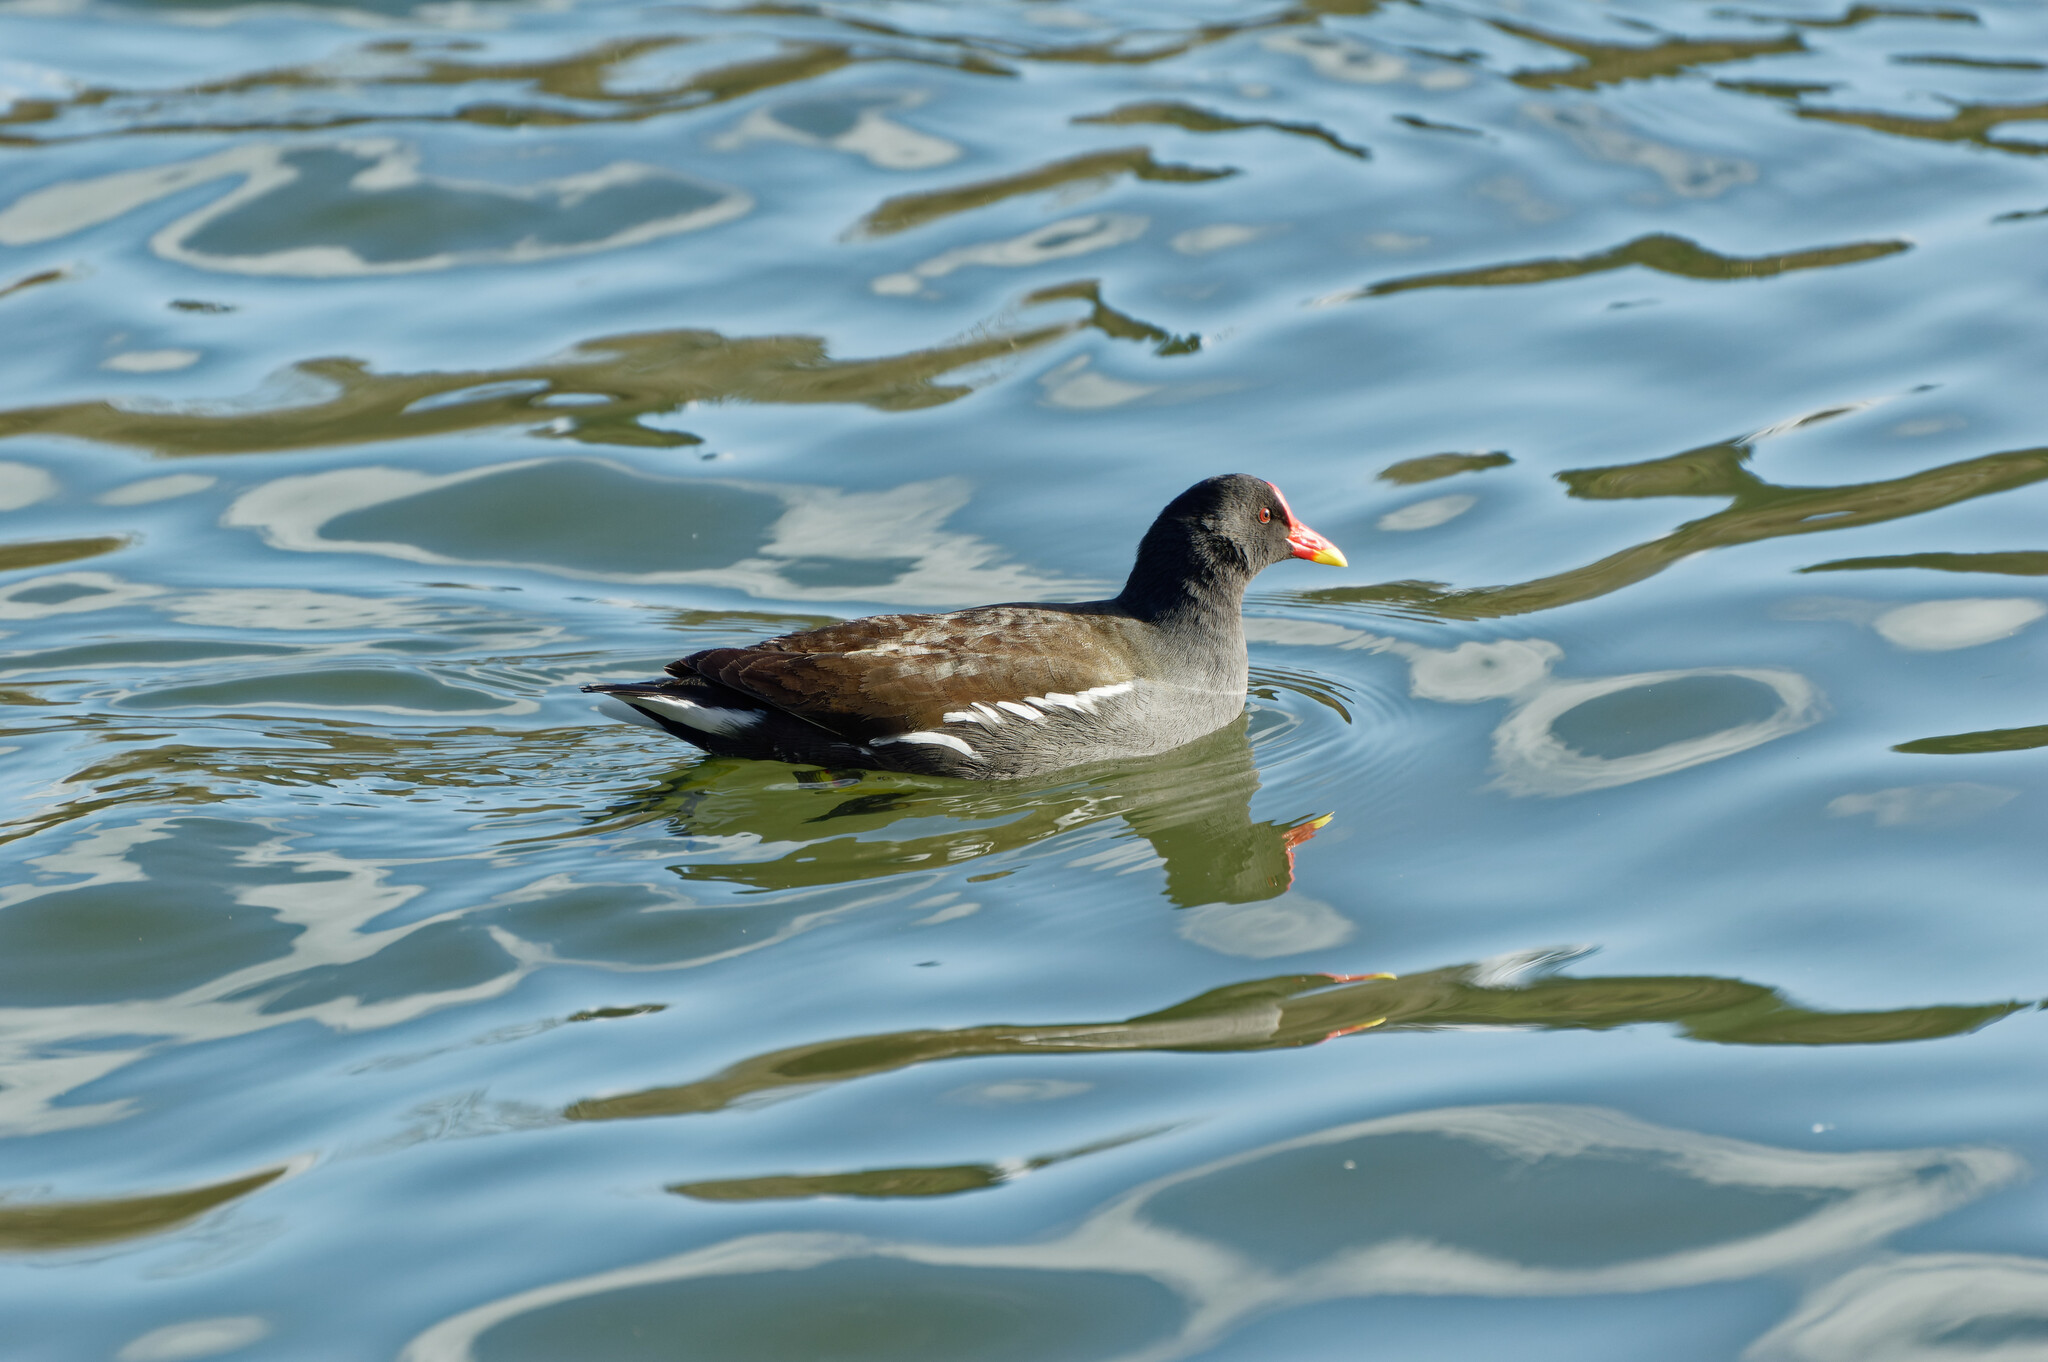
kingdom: Animalia
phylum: Chordata
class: Aves
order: Gruiformes
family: Rallidae
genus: Gallinula
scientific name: Gallinula chloropus
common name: Common moorhen
